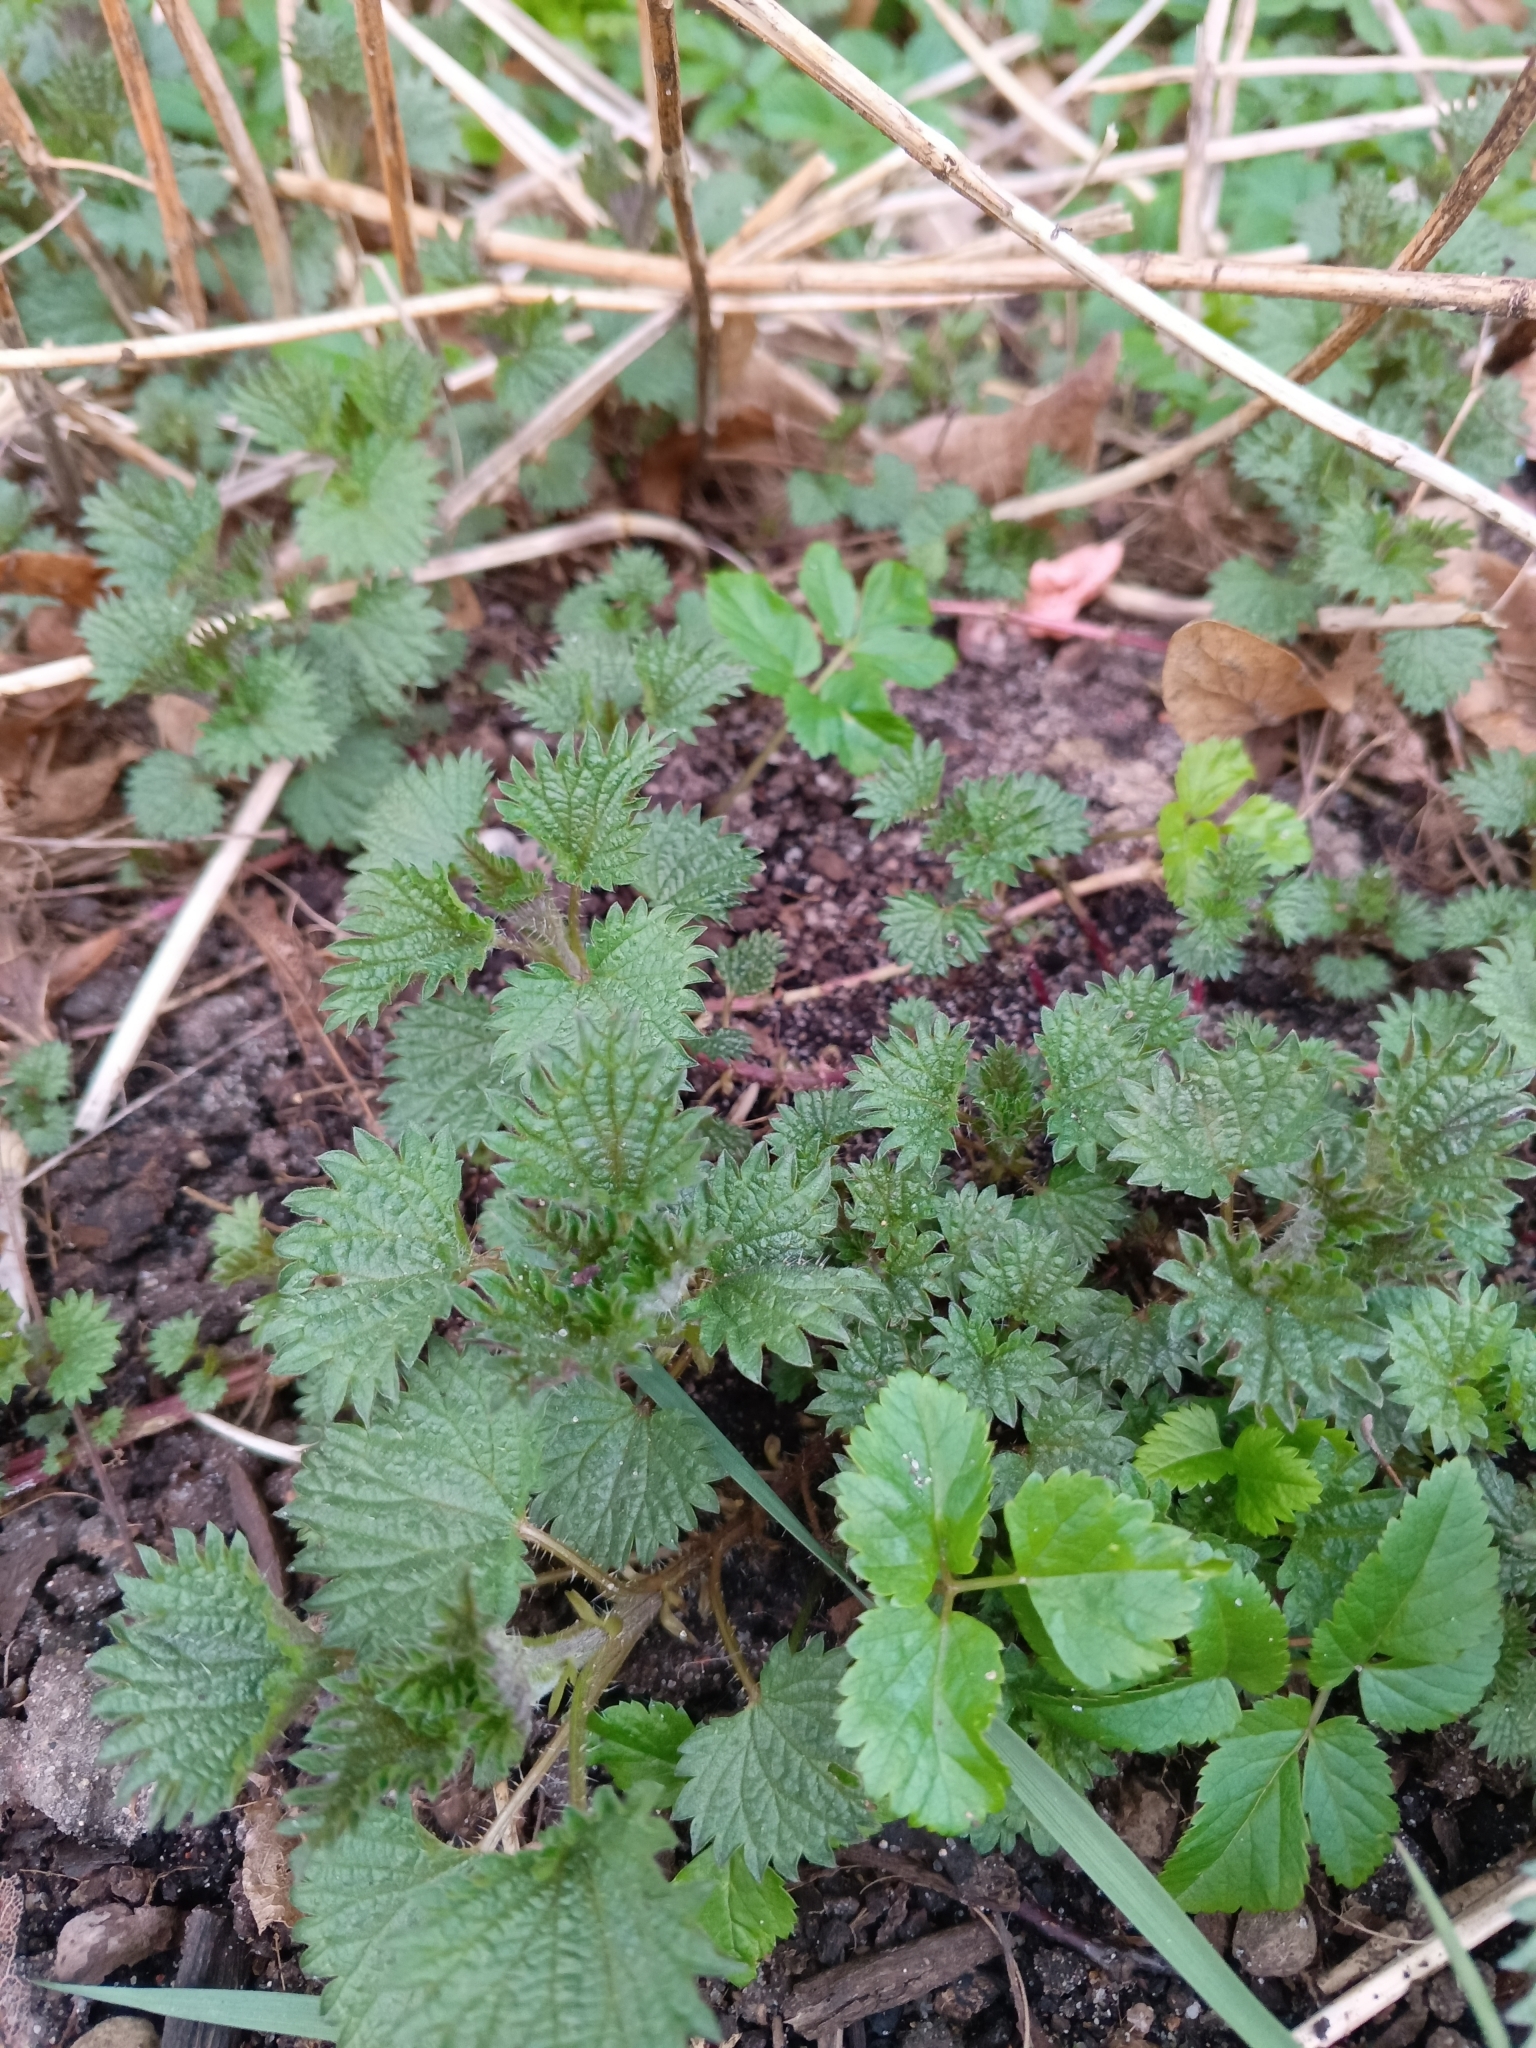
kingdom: Plantae
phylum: Tracheophyta
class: Magnoliopsida
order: Rosales
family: Urticaceae
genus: Urtica
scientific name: Urtica dioica
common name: Common nettle
